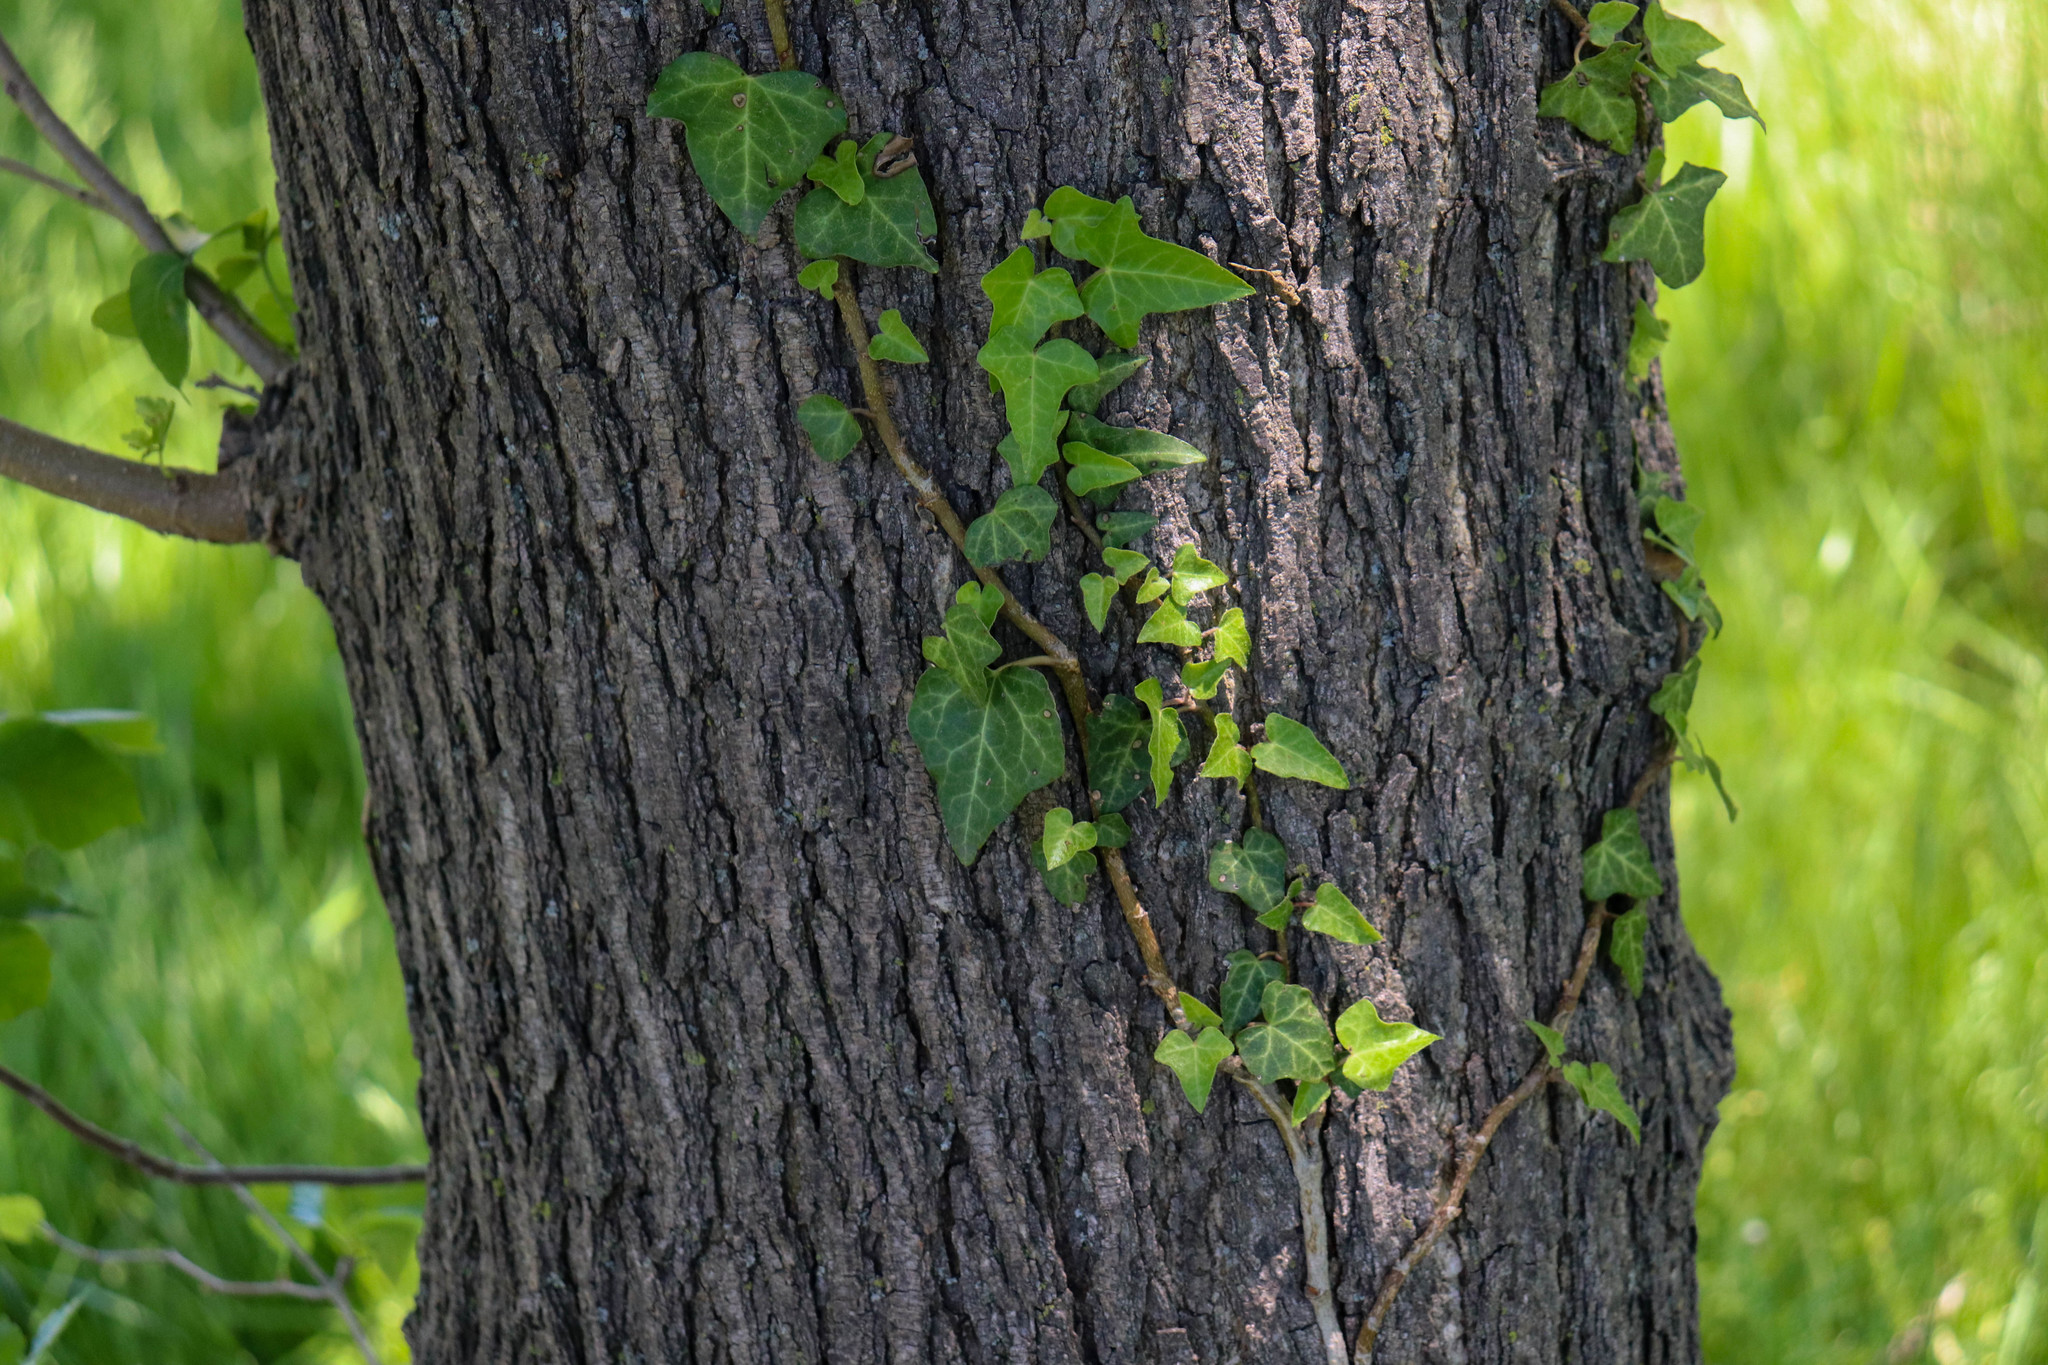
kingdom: Plantae
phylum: Tracheophyta
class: Magnoliopsida
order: Apiales
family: Araliaceae
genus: Hedera
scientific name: Hedera helix
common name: Ivy
